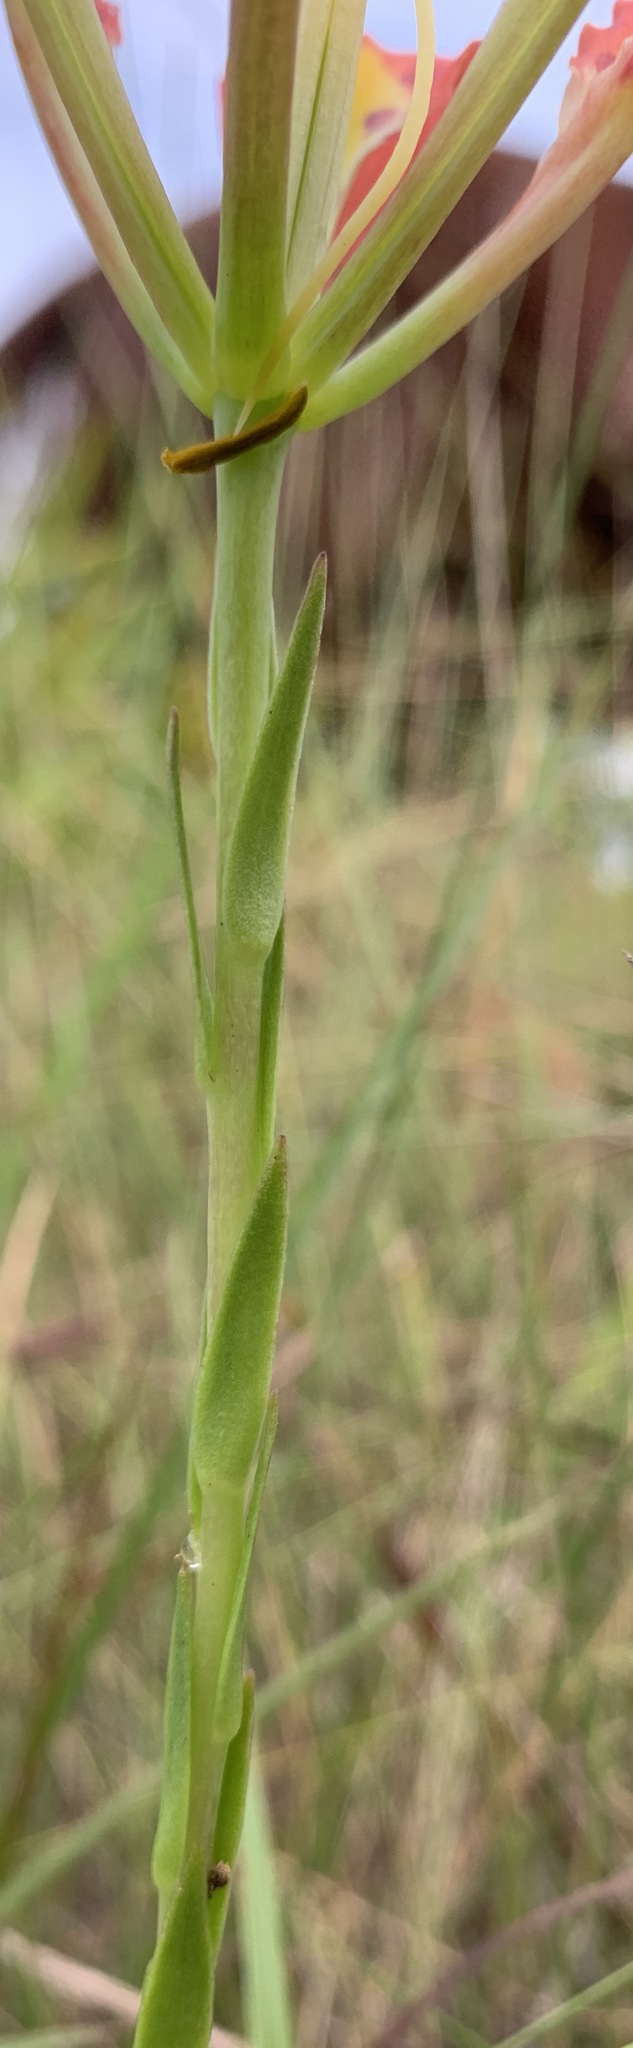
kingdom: Plantae
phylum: Tracheophyta
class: Liliopsida
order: Liliales
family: Liliaceae
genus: Lilium
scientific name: Lilium catesbaei
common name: Catesby's lily
